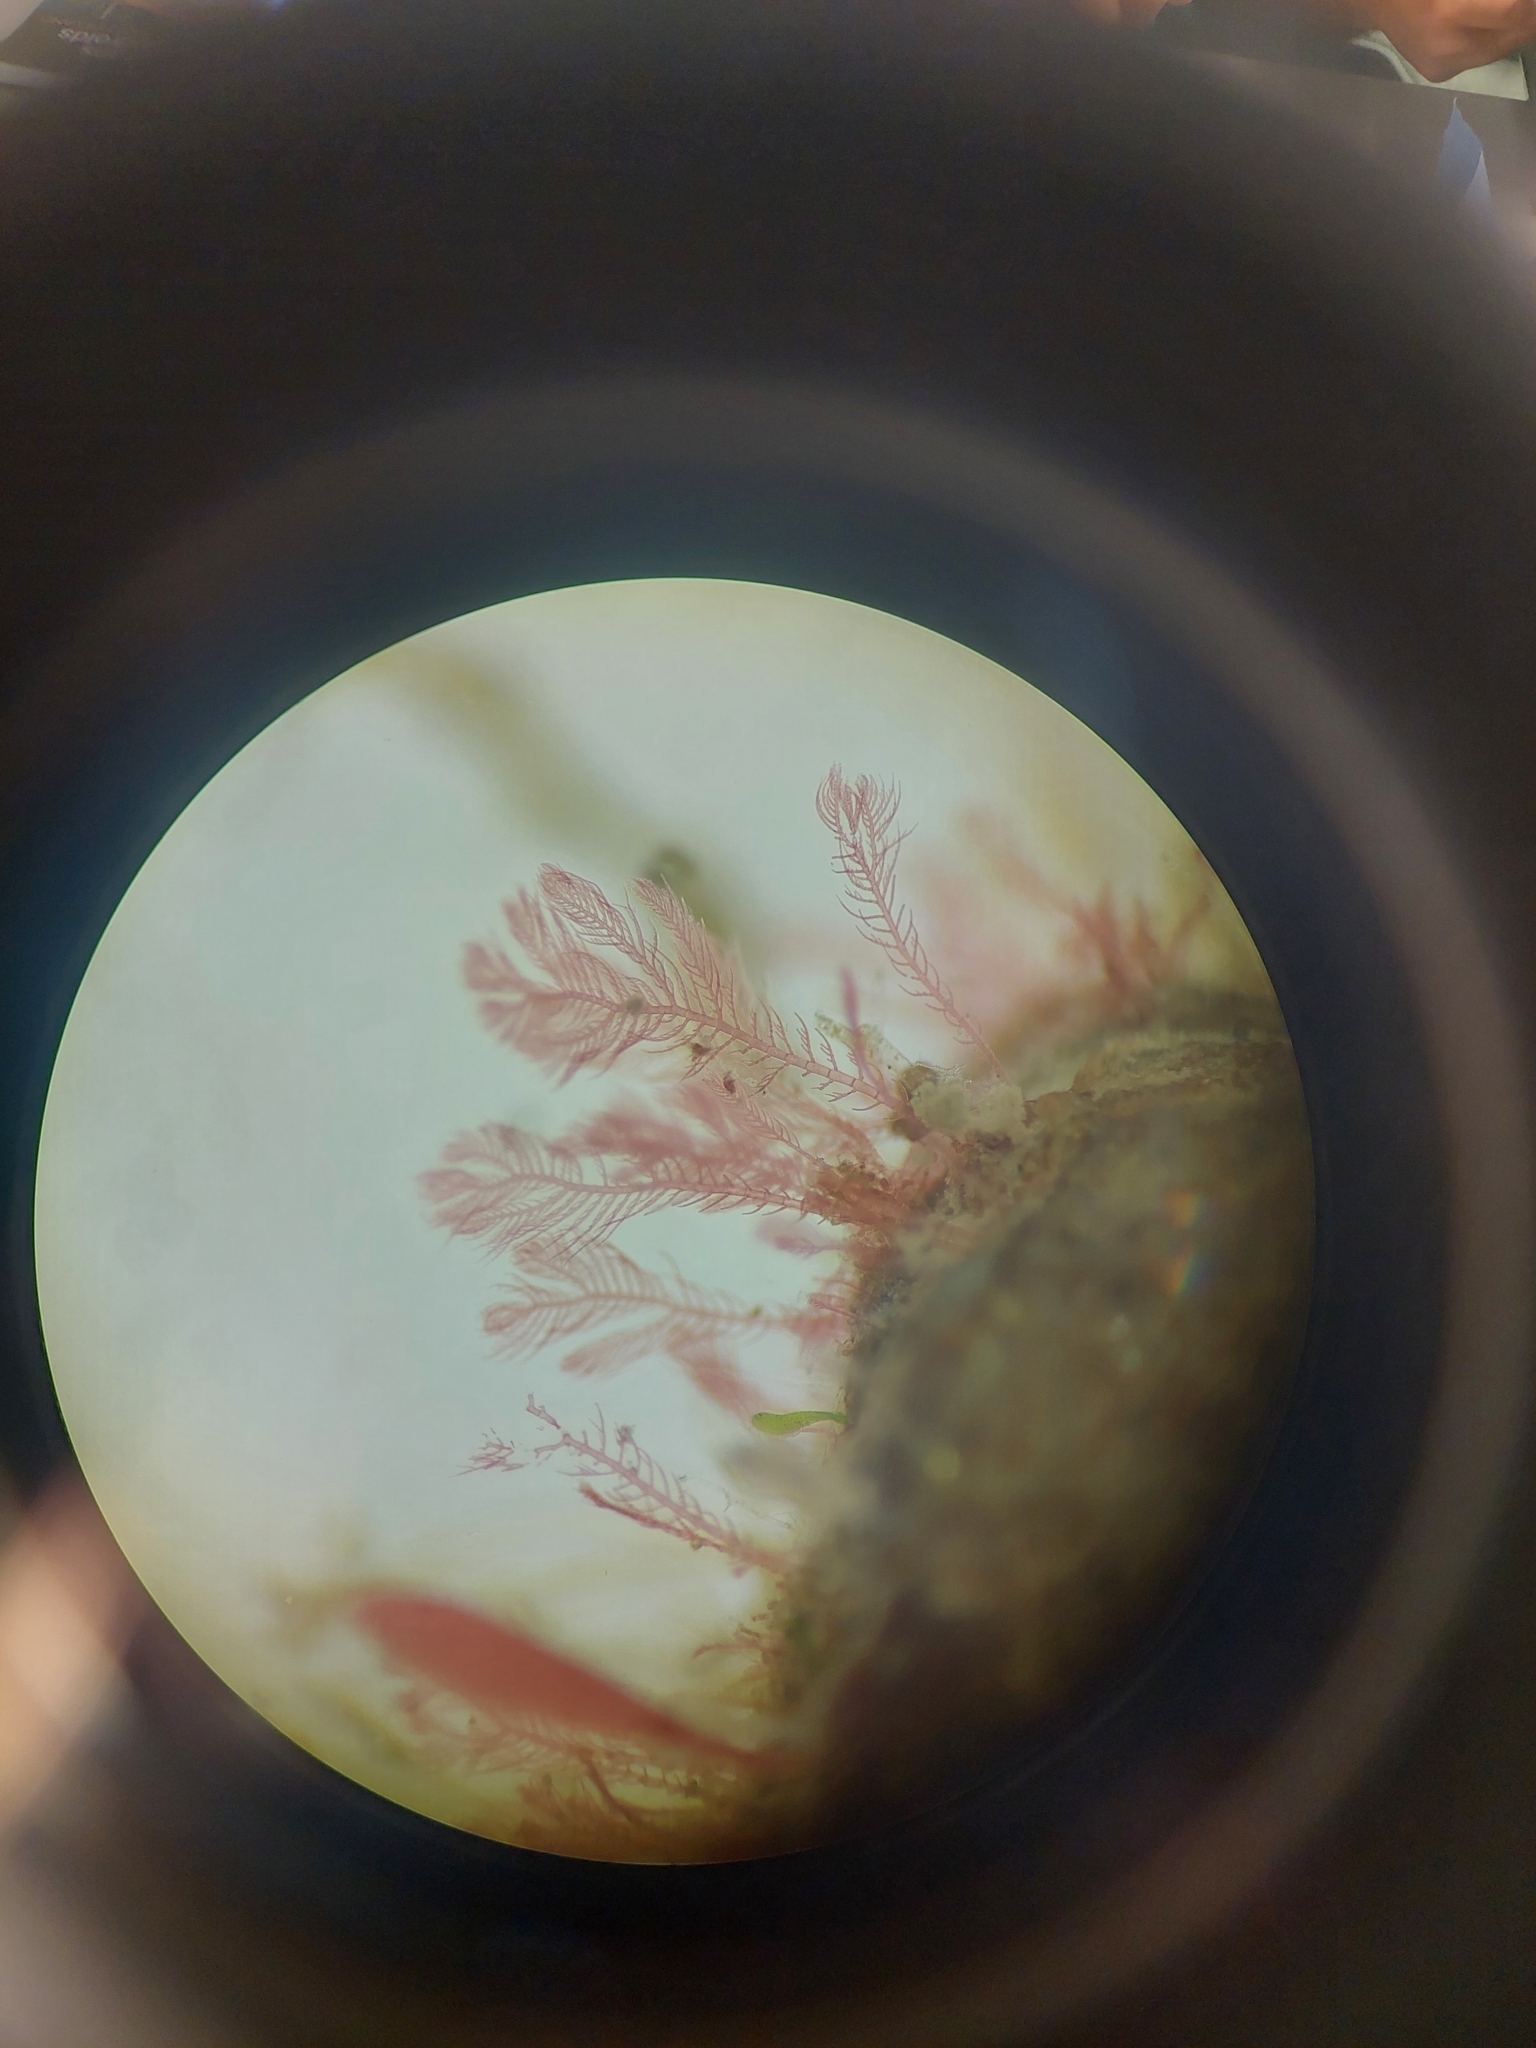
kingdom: Plantae
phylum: Rhodophyta
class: Florideophyceae
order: Ceramiales
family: Ceramiaceae
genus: Pterothamnion
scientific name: Pterothamnion plumula
